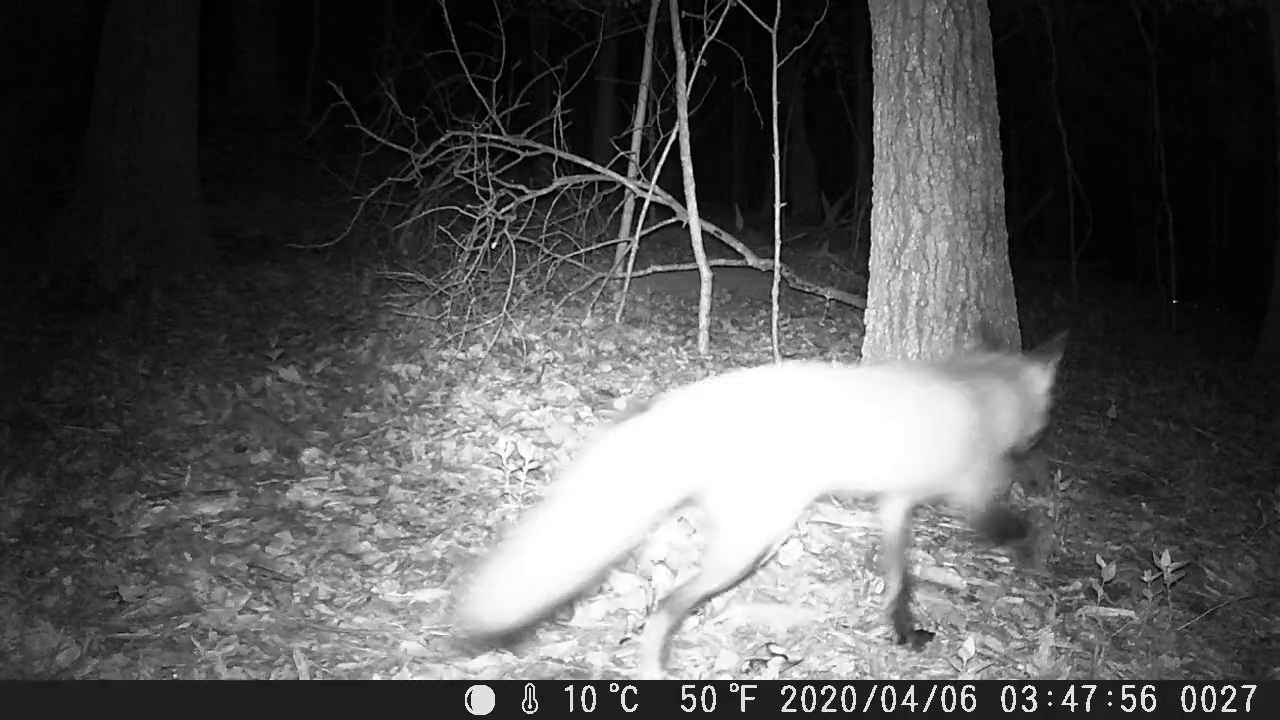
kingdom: Animalia
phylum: Chordata
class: Mammalia
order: Carnivora
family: Canidae
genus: Vulpes
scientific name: Vulpes vulpes
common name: Red fox
